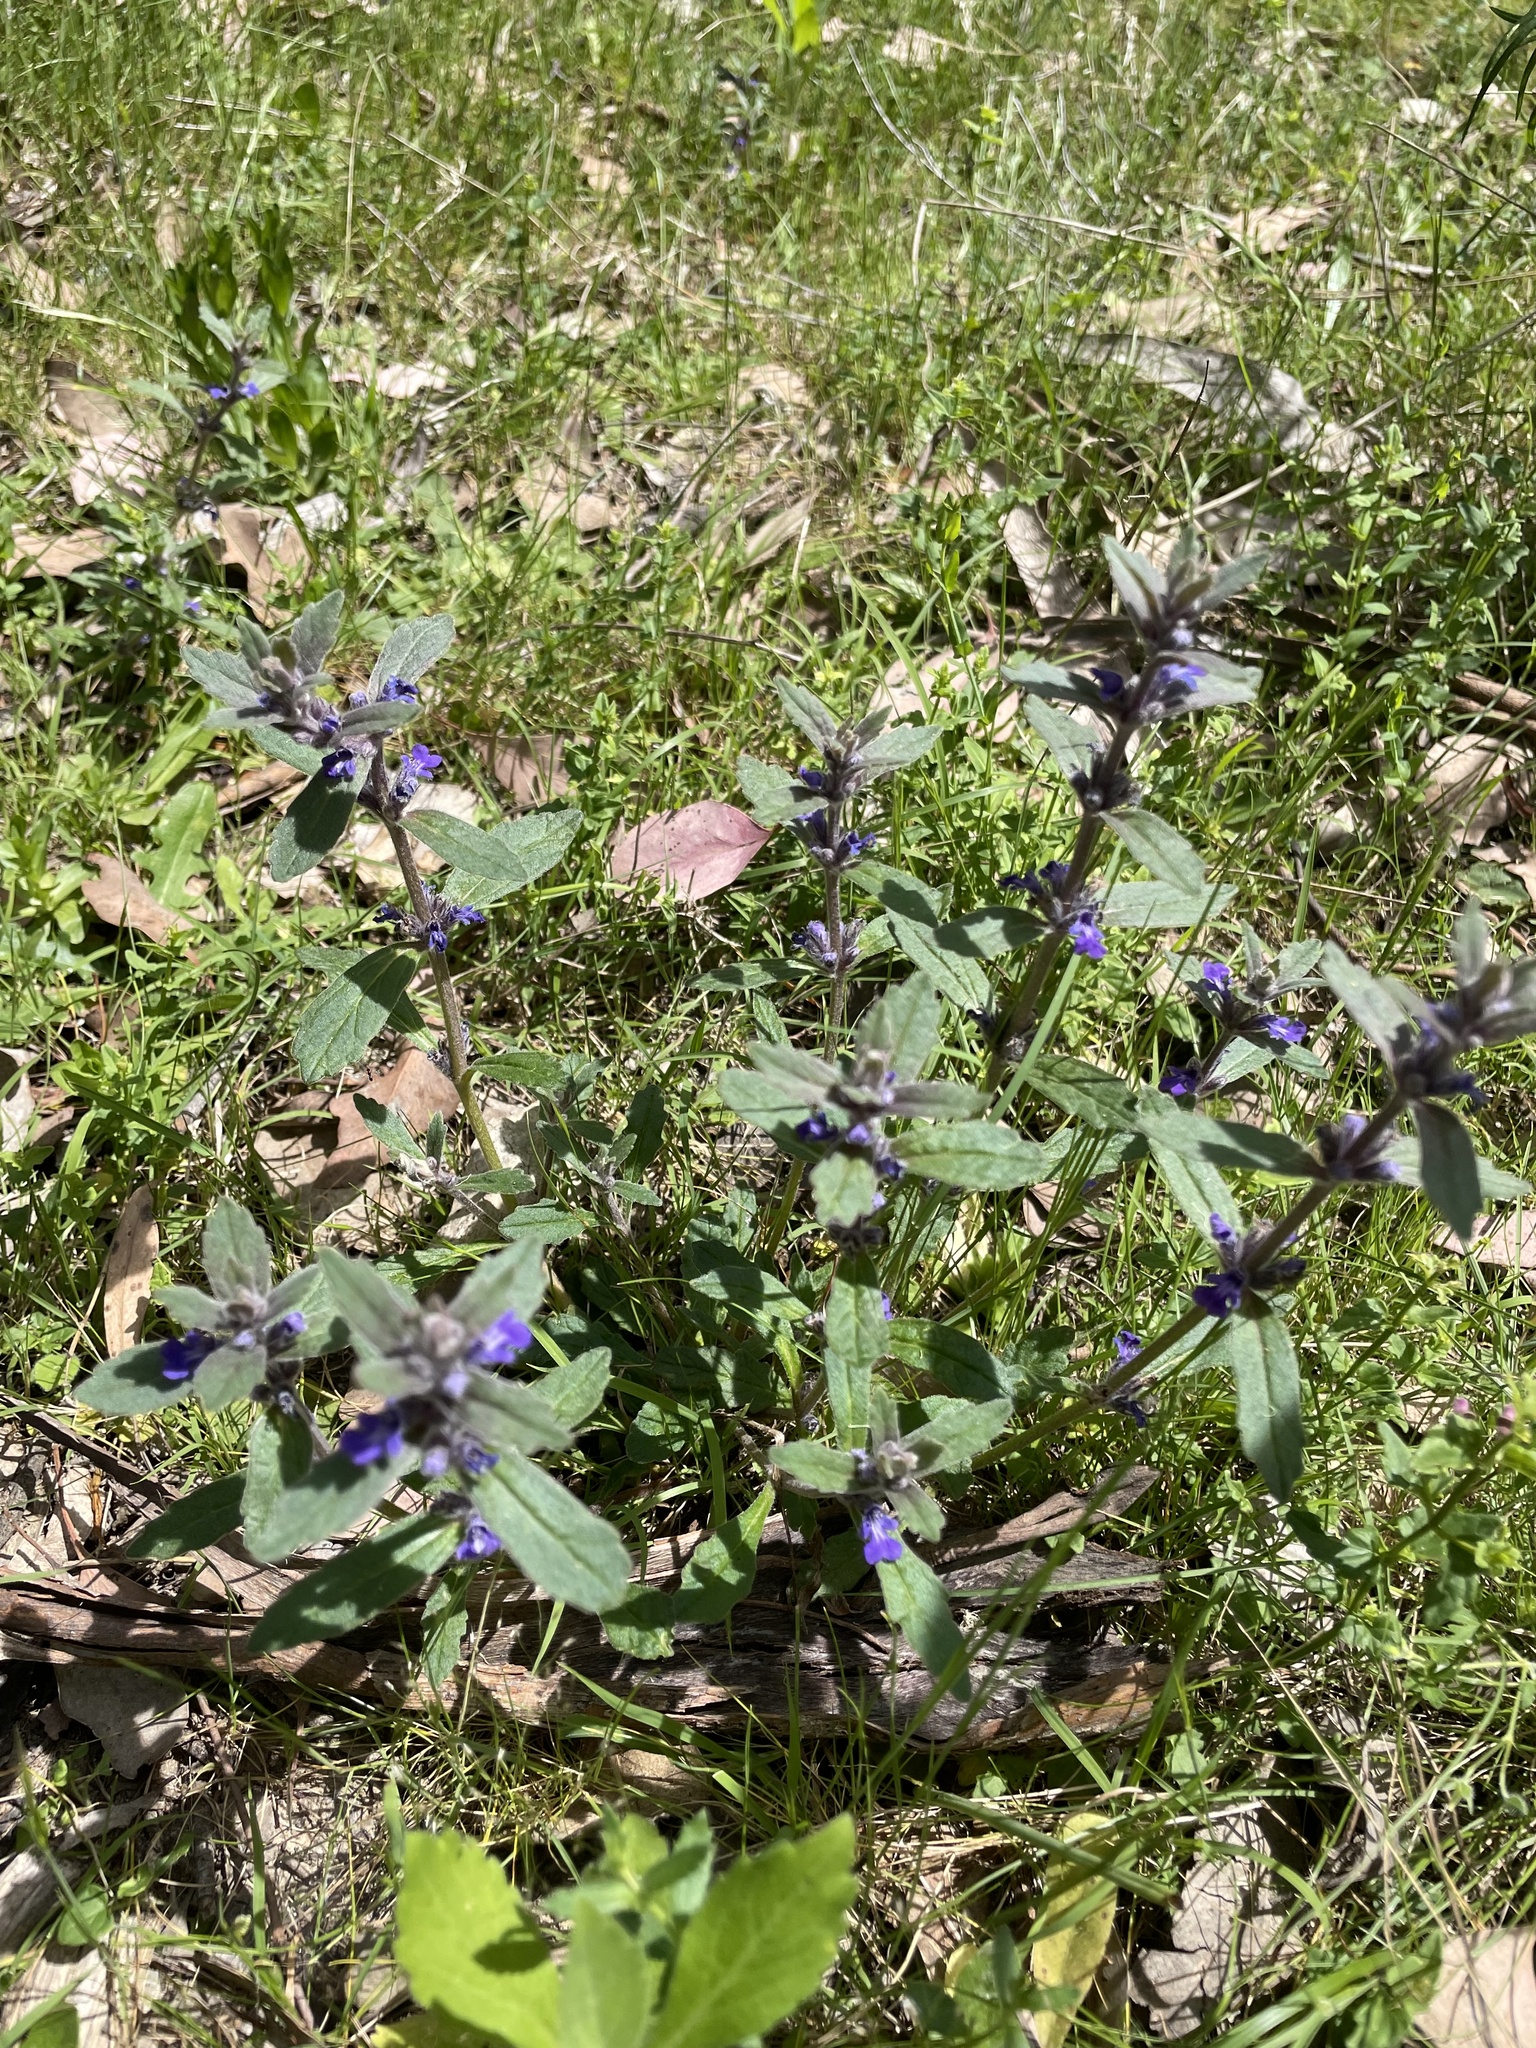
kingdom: Plantae
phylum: Tracheophyta
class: Magnoliopsida
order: Lamiales
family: Lamiaceae
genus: Ajuga
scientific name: Ajuga australis
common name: Australian bugle
